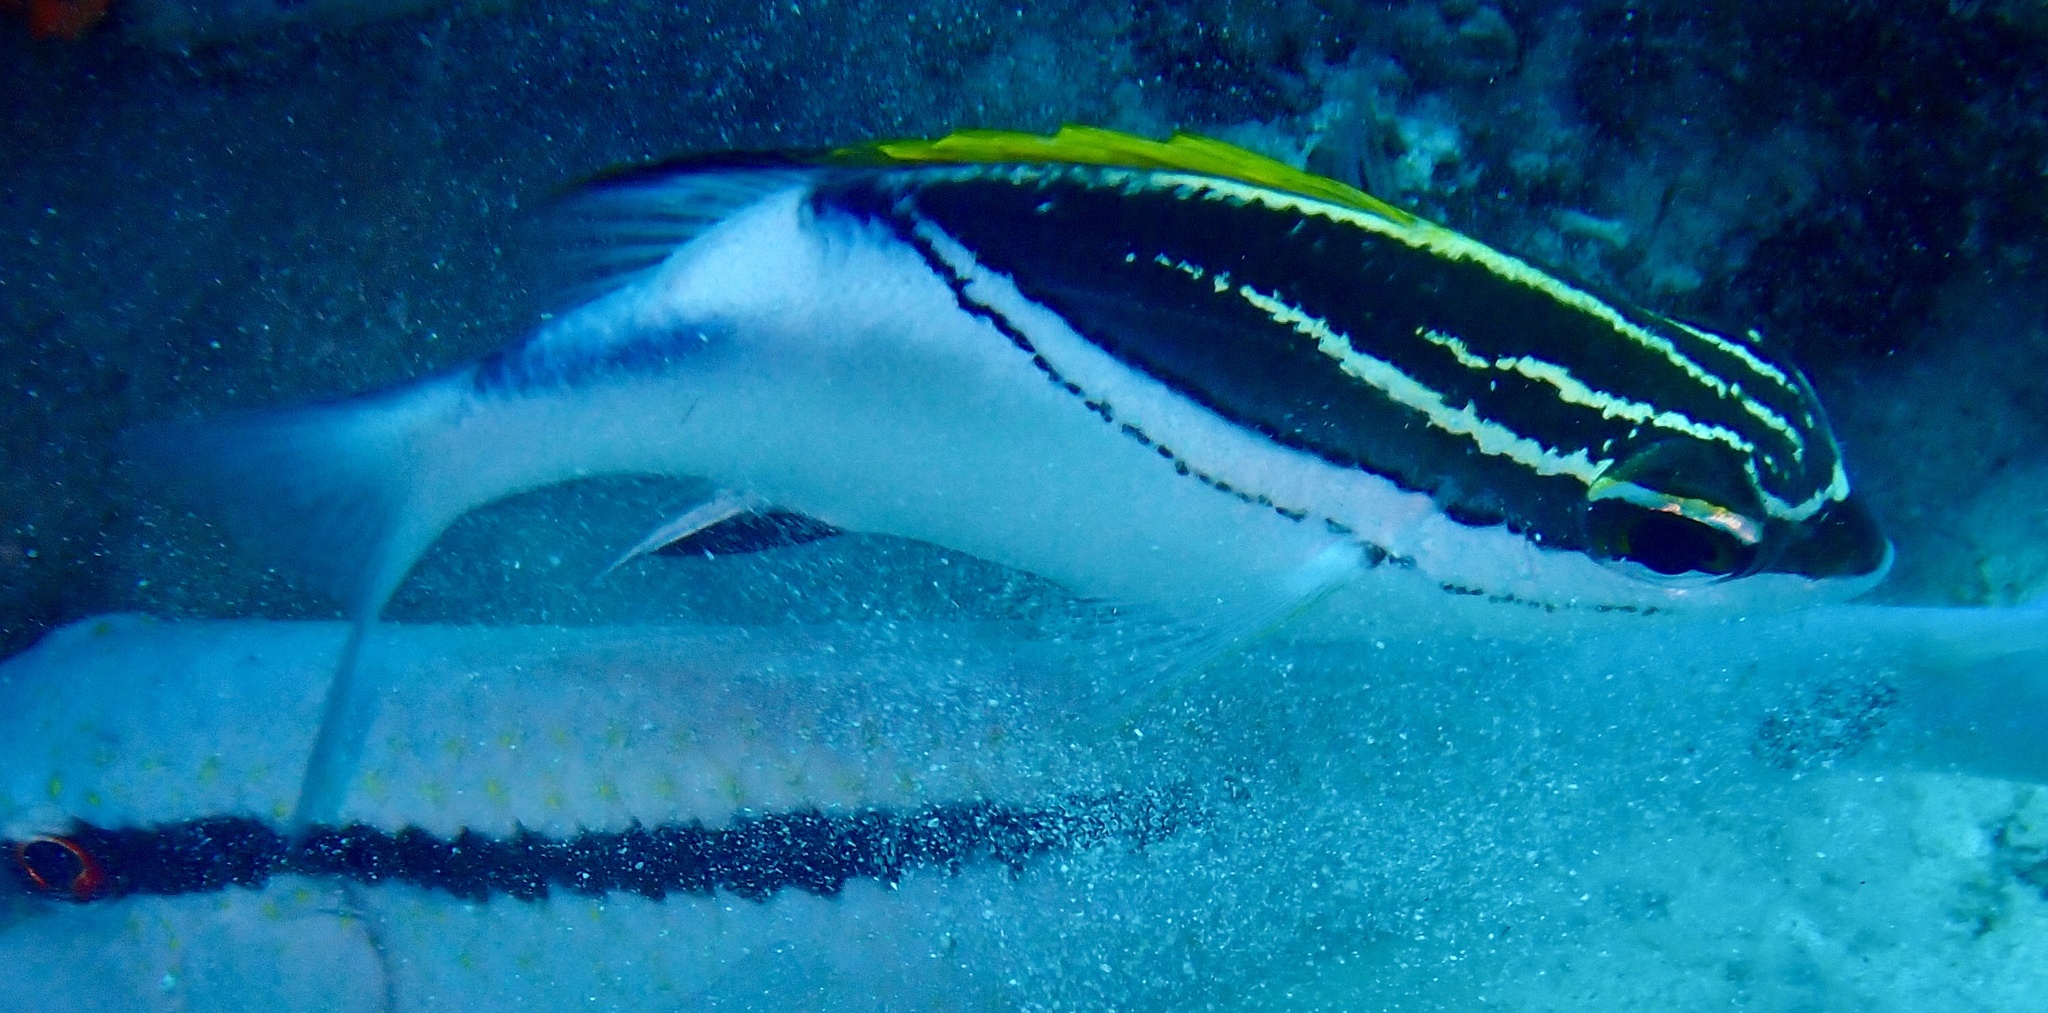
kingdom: Animalia
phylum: Chordata
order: Perciformes
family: Nemipteridae
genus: Scolopsis
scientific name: Scolopsis bilineata
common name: Two-lined monocle bream
